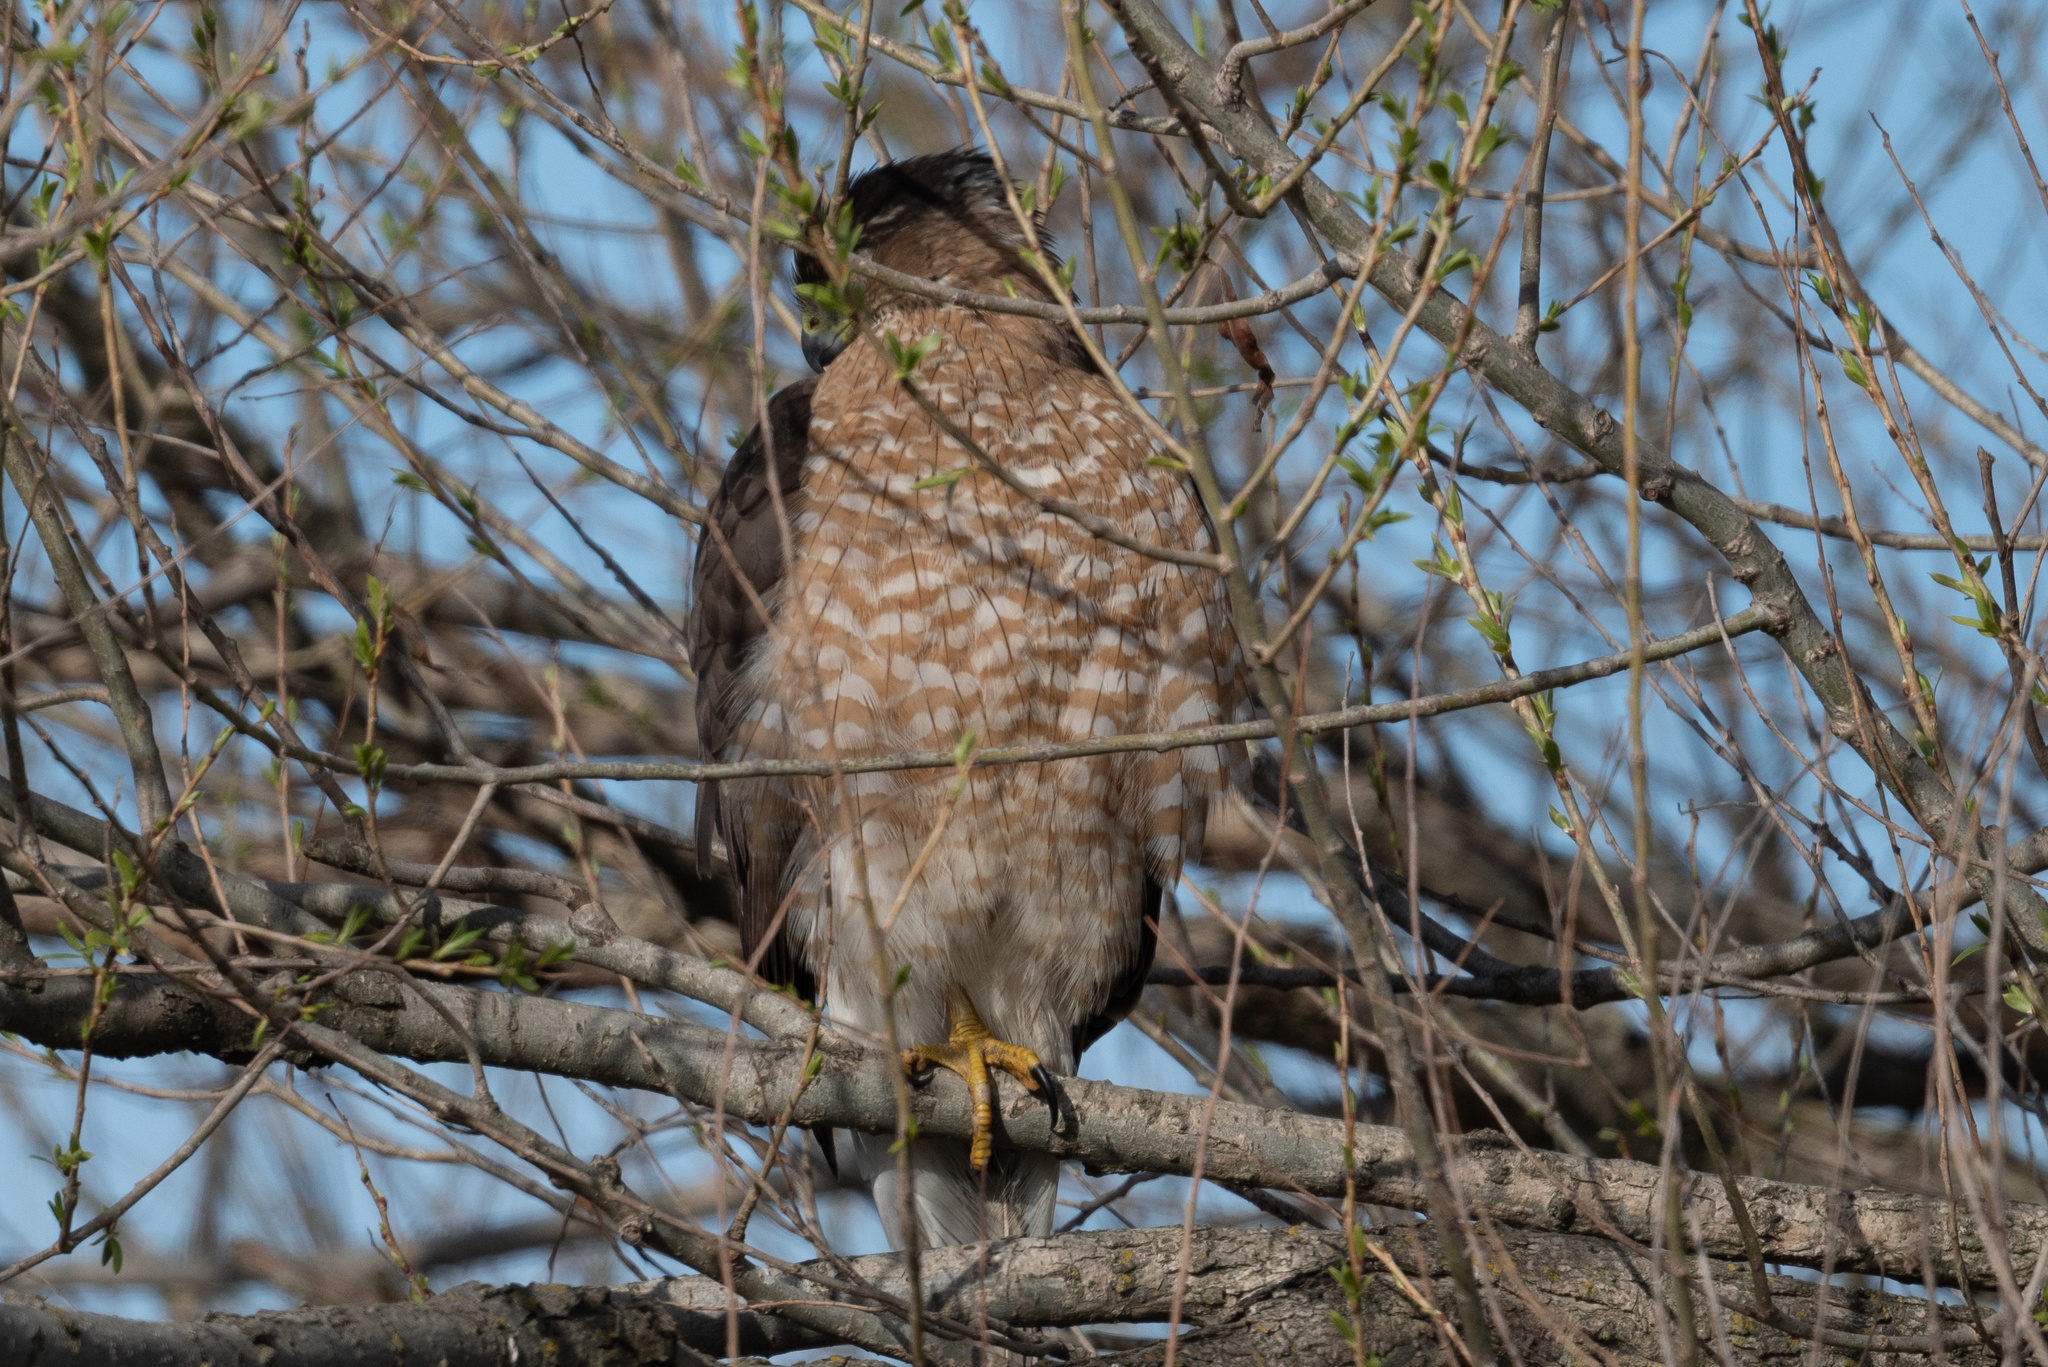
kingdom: Animalia
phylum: Chordata
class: Aves
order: Accipitriformes
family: Accipitridae
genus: Accipiter
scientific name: Accipiter cooperii
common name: Cooper's hawk
